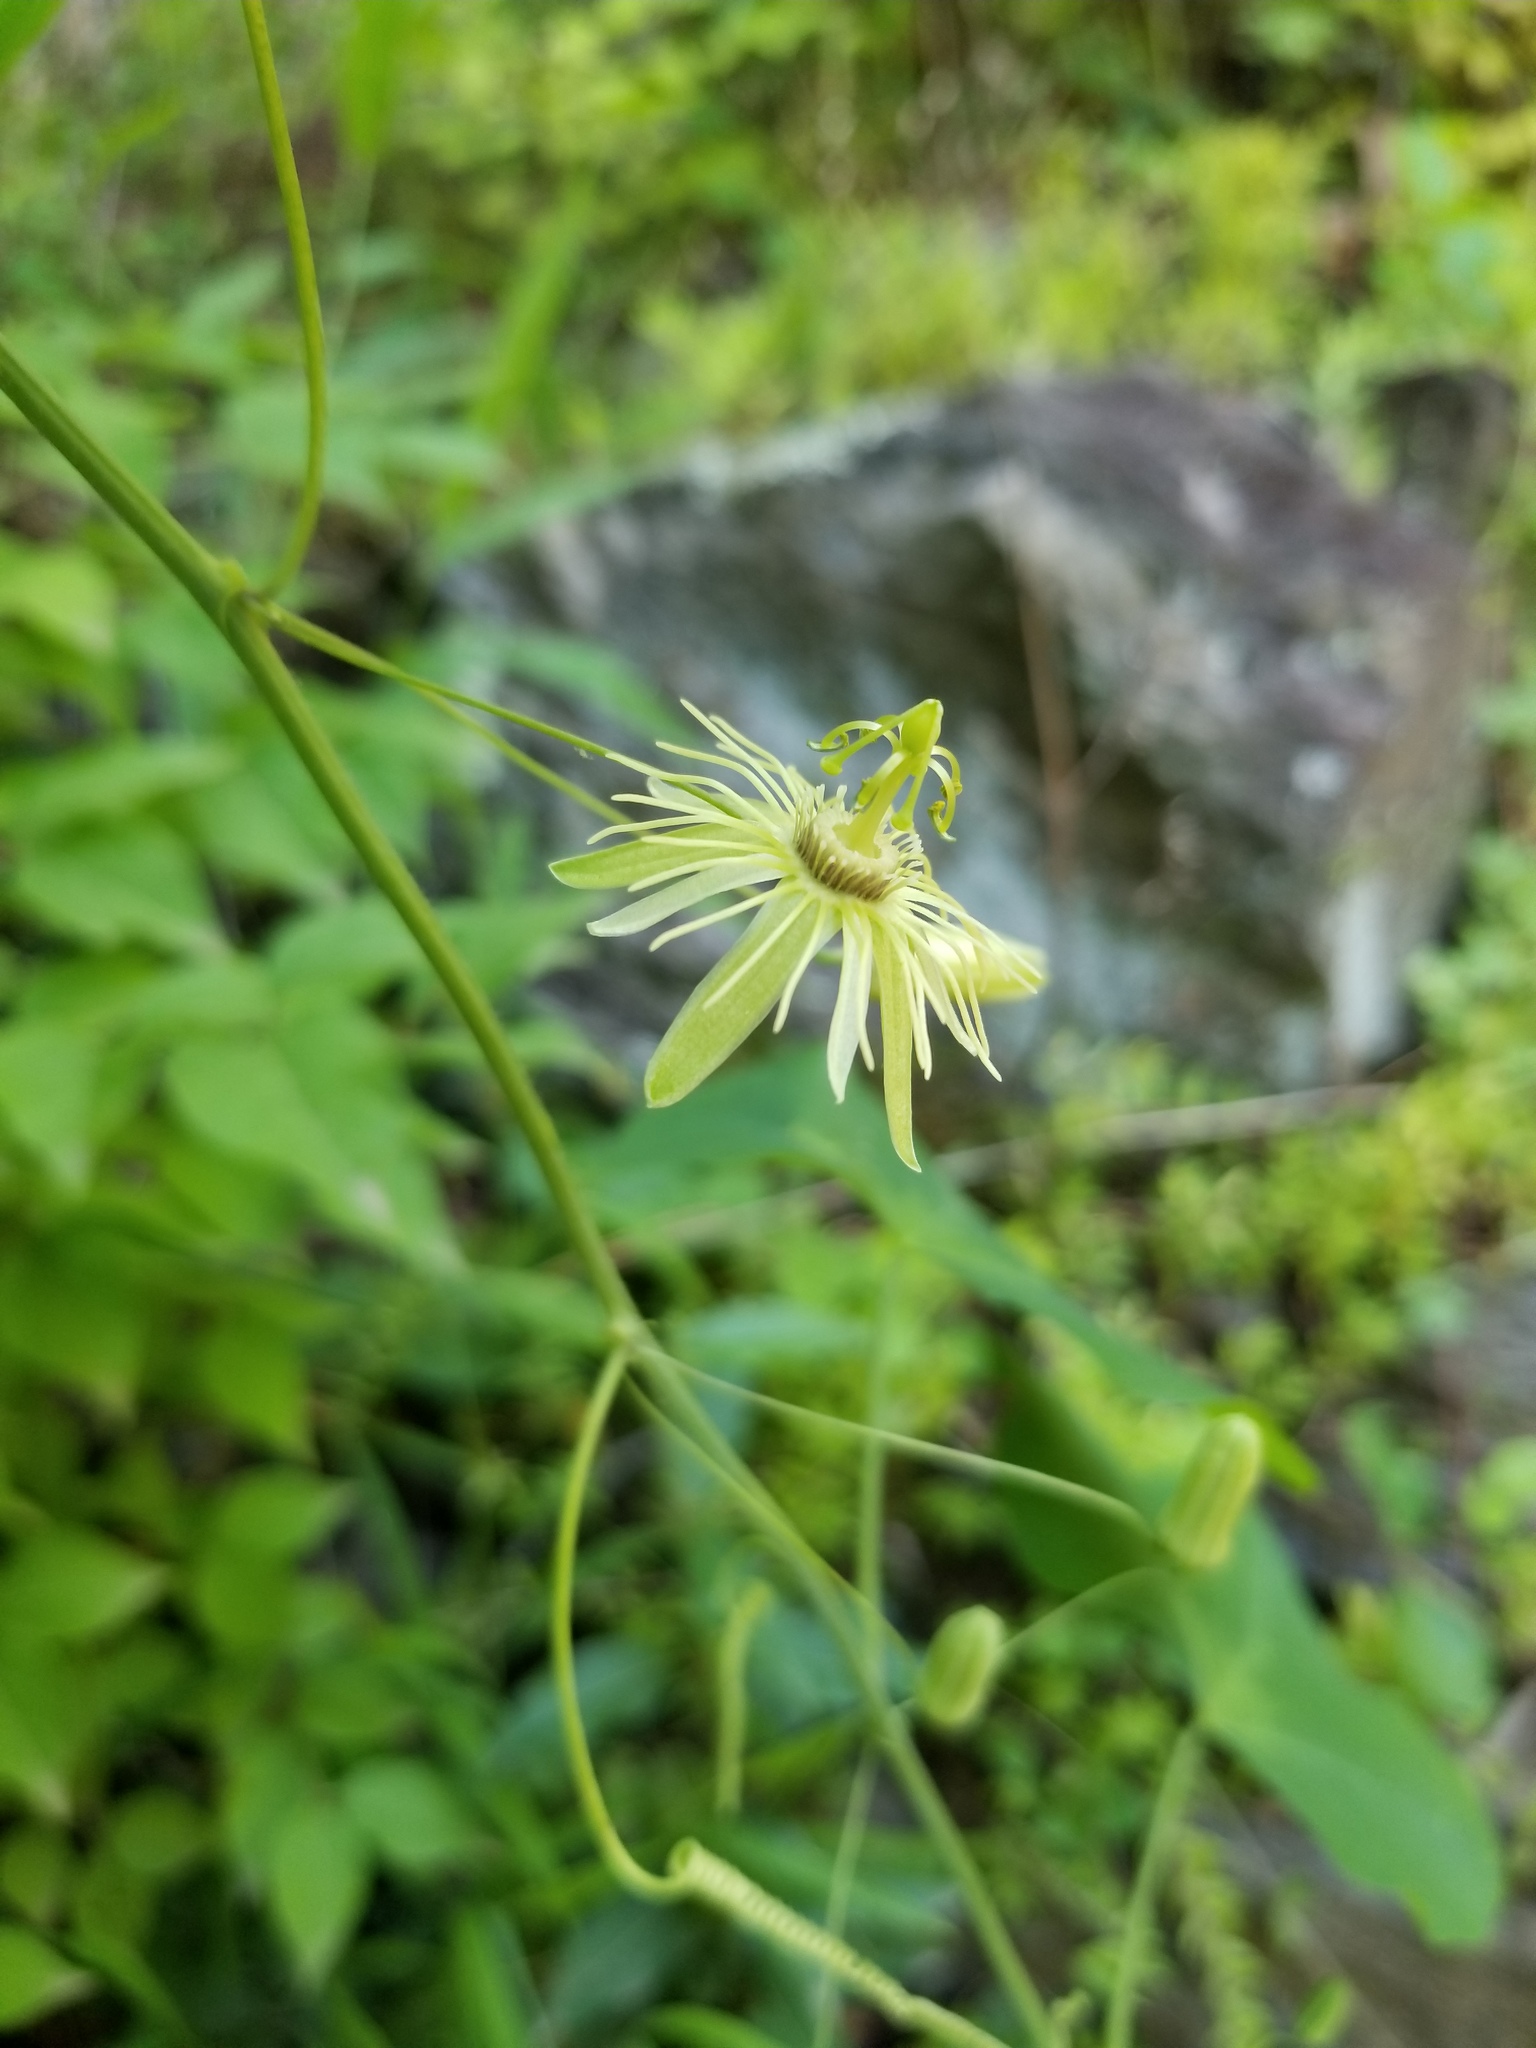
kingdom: Plantae
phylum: Tracheophyta
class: Magnoliopsida
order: Malpighiales
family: Passifloraceae
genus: Passiflora
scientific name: Passiflora lutea
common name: Yellow passionflower
